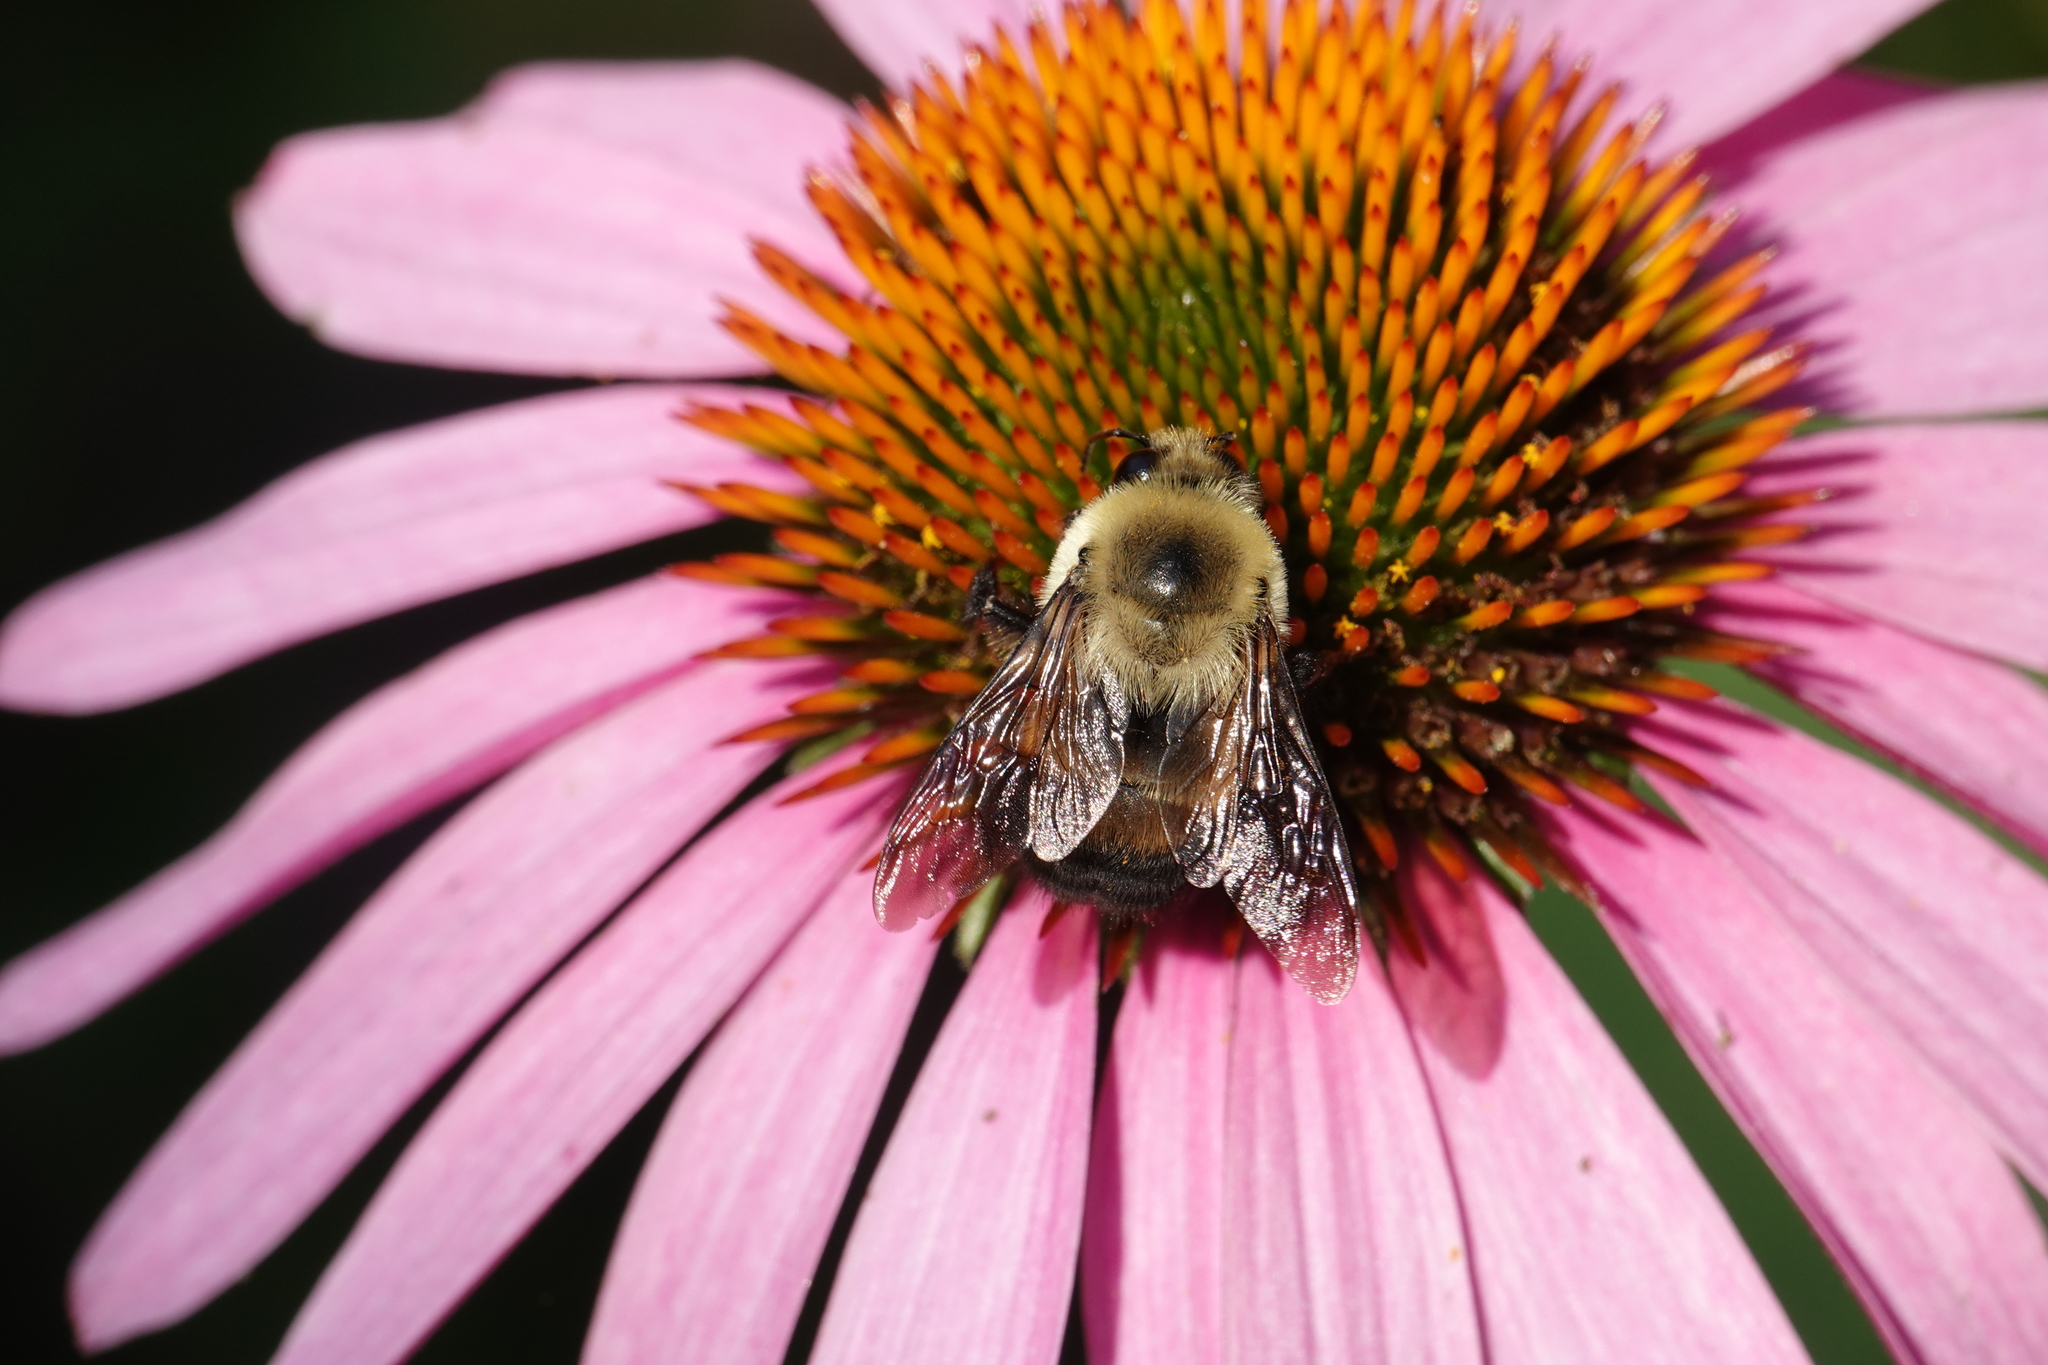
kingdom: Animalia
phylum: Arthropoda
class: Insecta
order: Hymenoptera
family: Apidae
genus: Bombus
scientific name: Bombus griseocollis
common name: Brown-belted bumble bee
